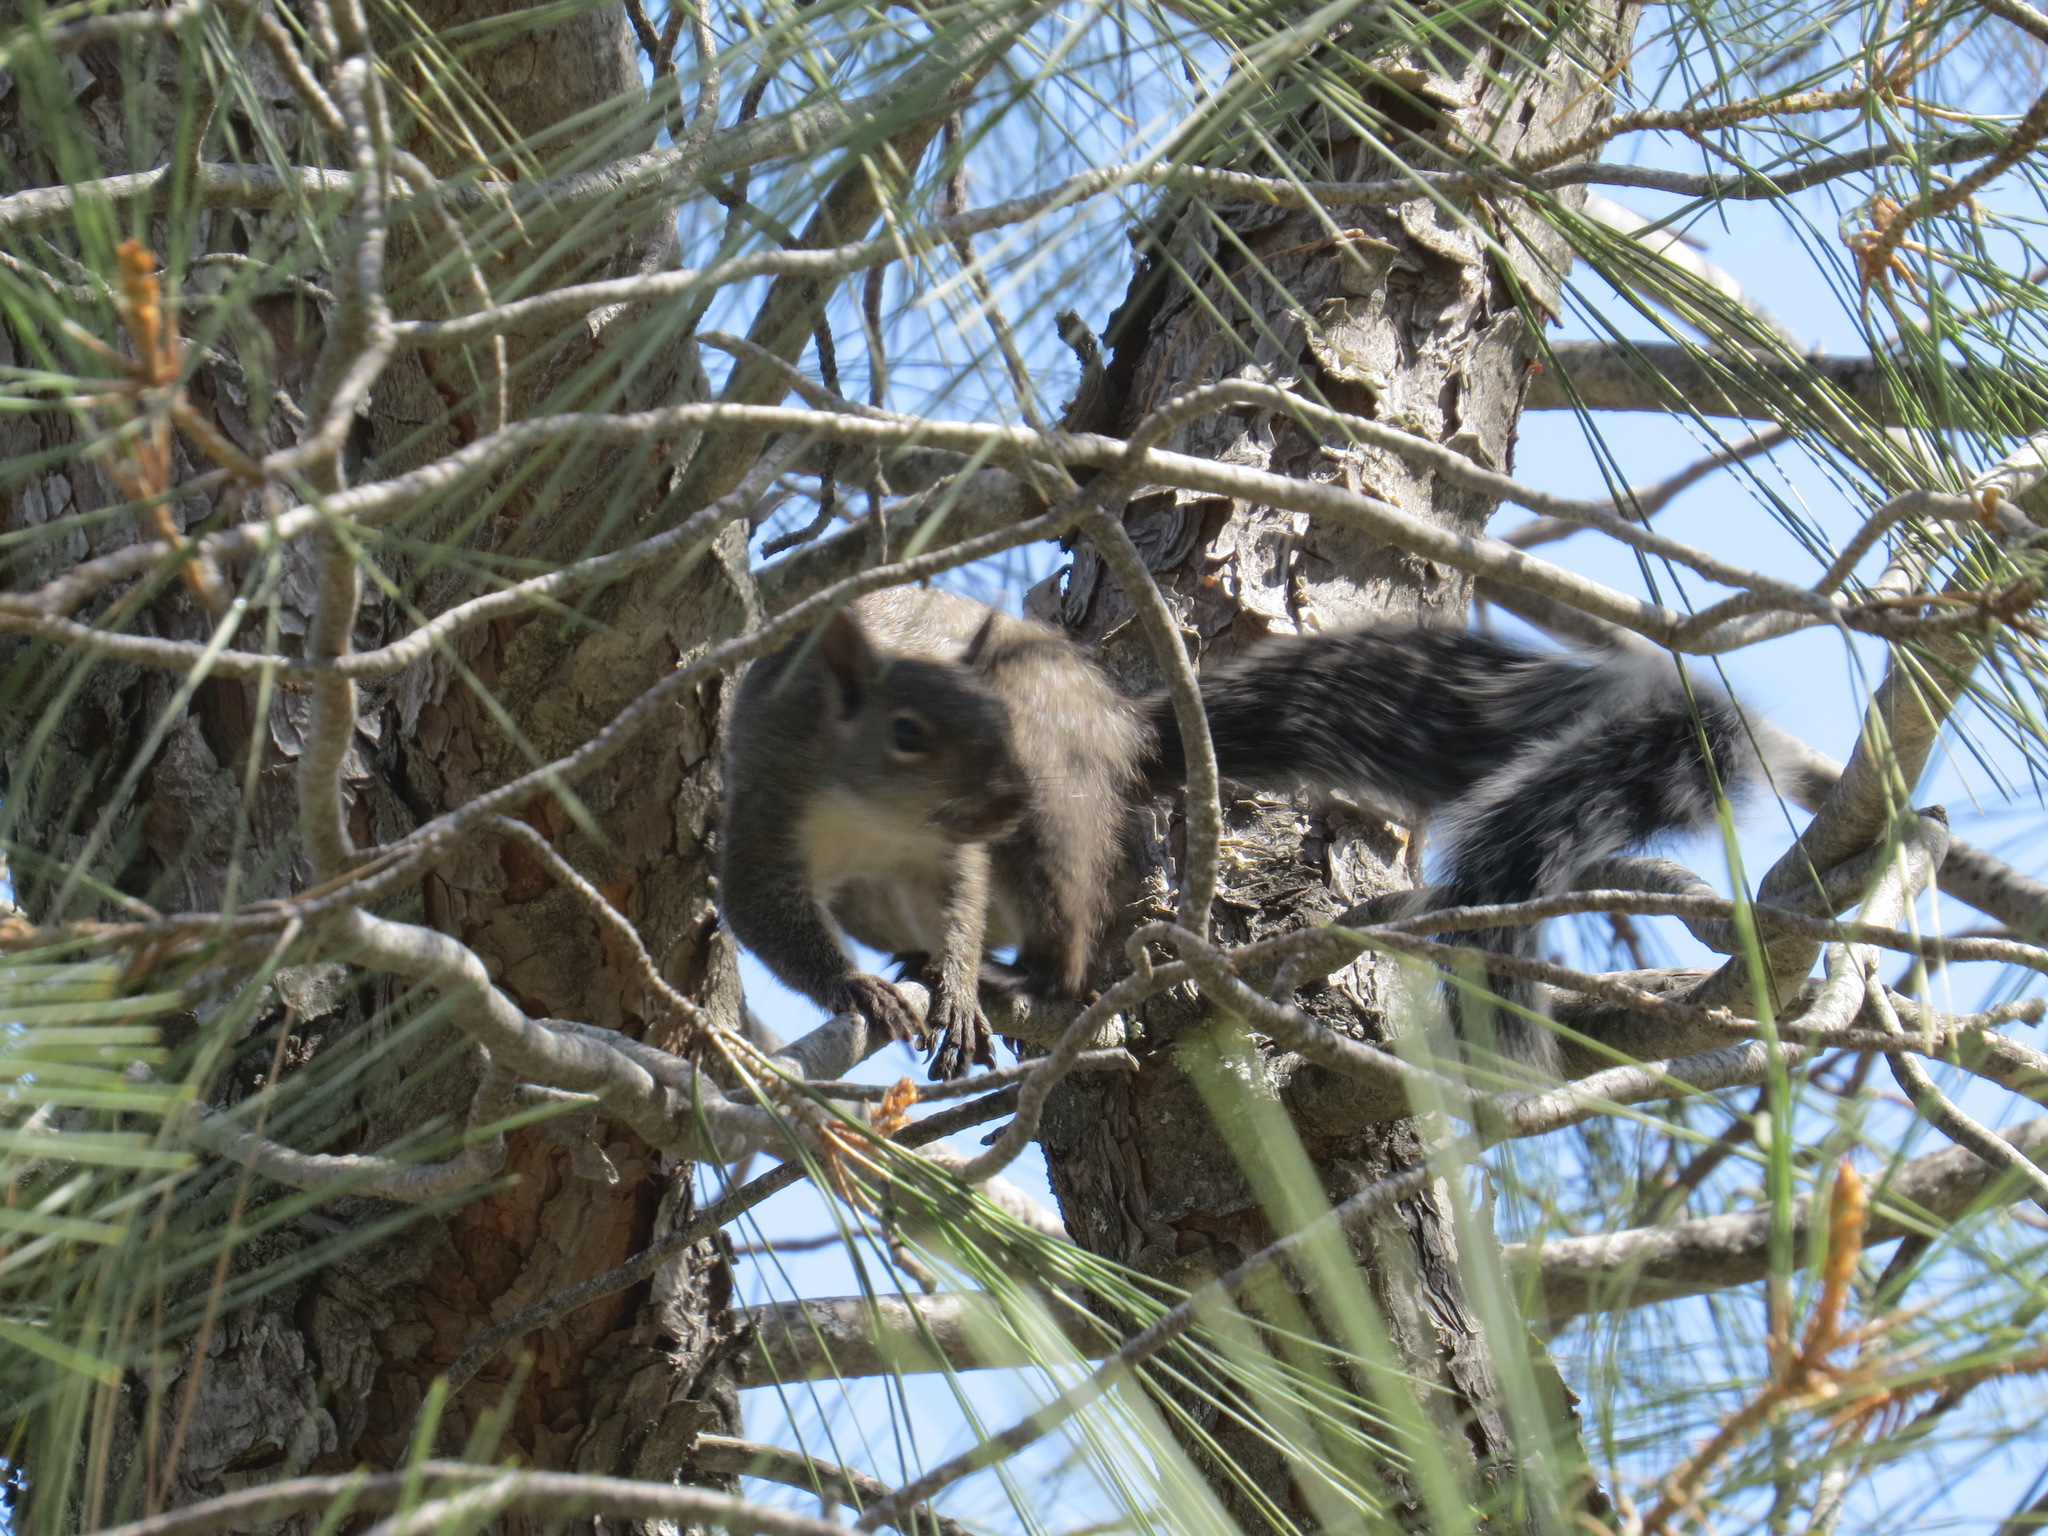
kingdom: Animalia
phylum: Chordata
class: Mammalia
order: Rodentia
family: Sciuridae
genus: Sciurus
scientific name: Sciurus griseus
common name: Western gray squirrel
